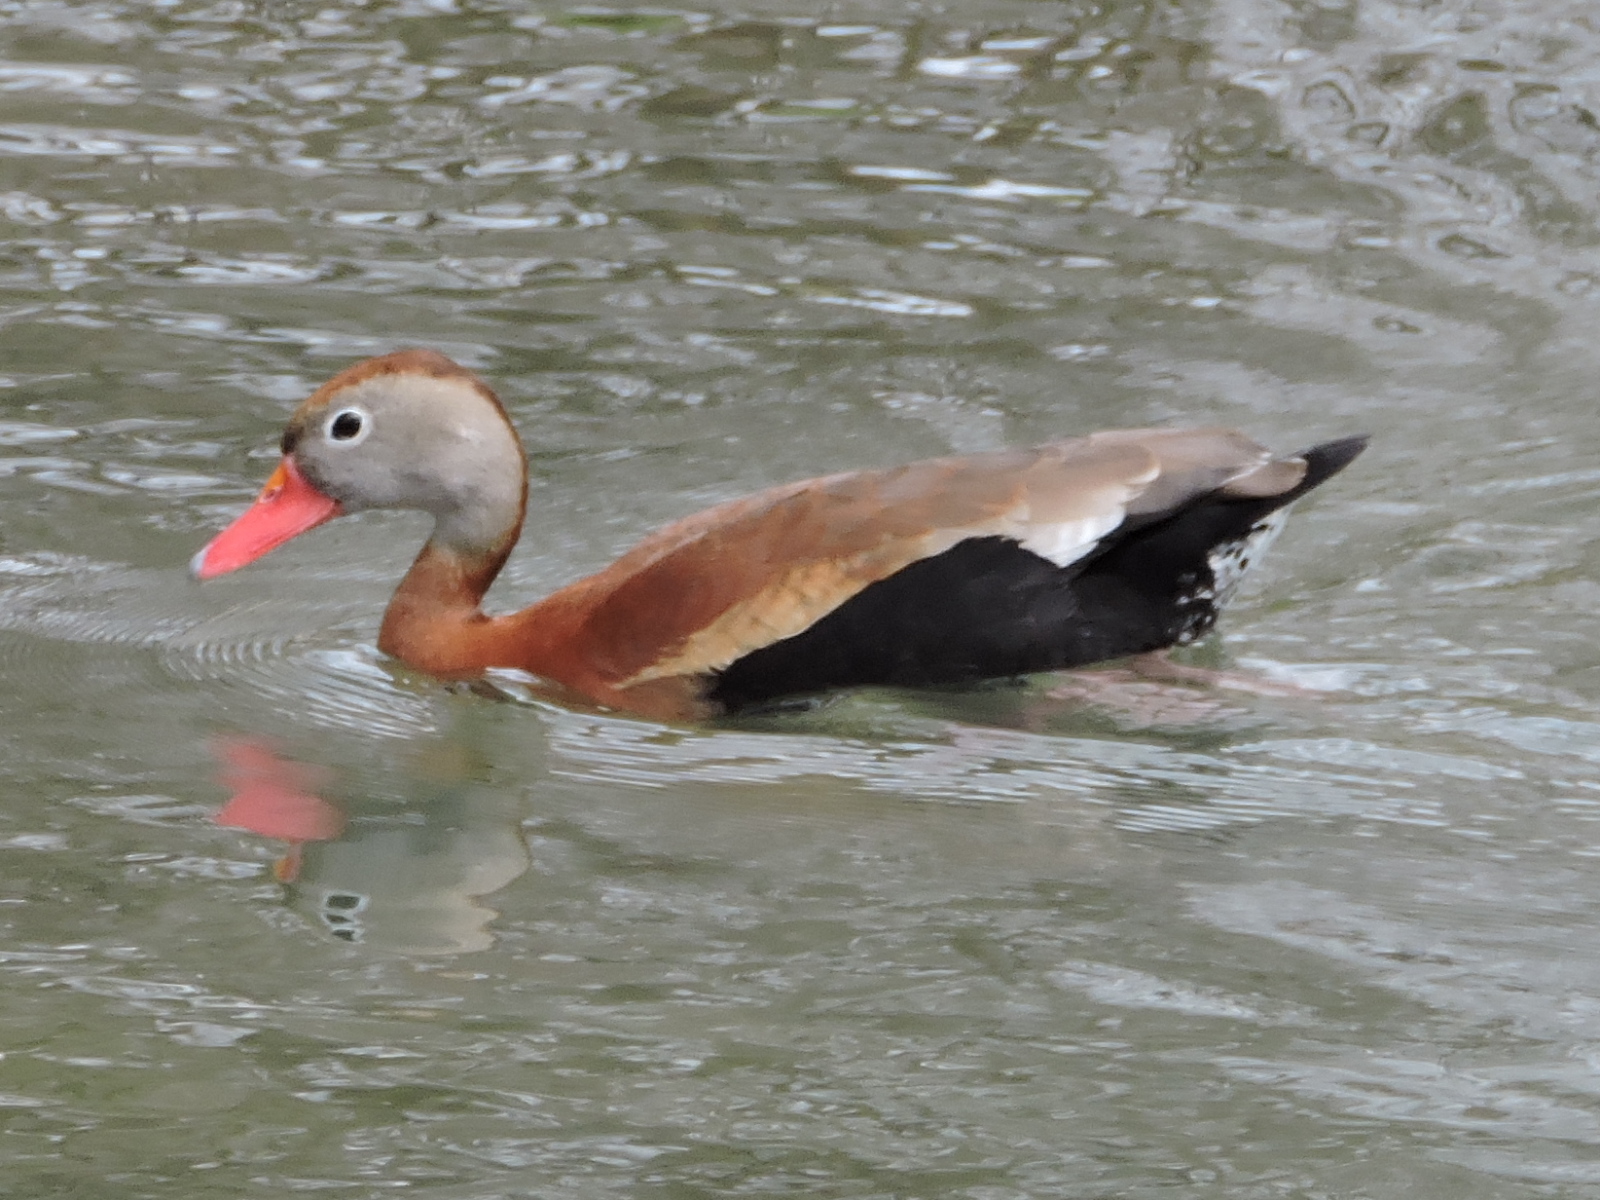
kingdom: Animalia
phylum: Chordata
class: Aves
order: Anseriformes
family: Anatidae
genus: Dendrocygna
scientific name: Dendrocygna autumnalis
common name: Black-bellied whistling duck
